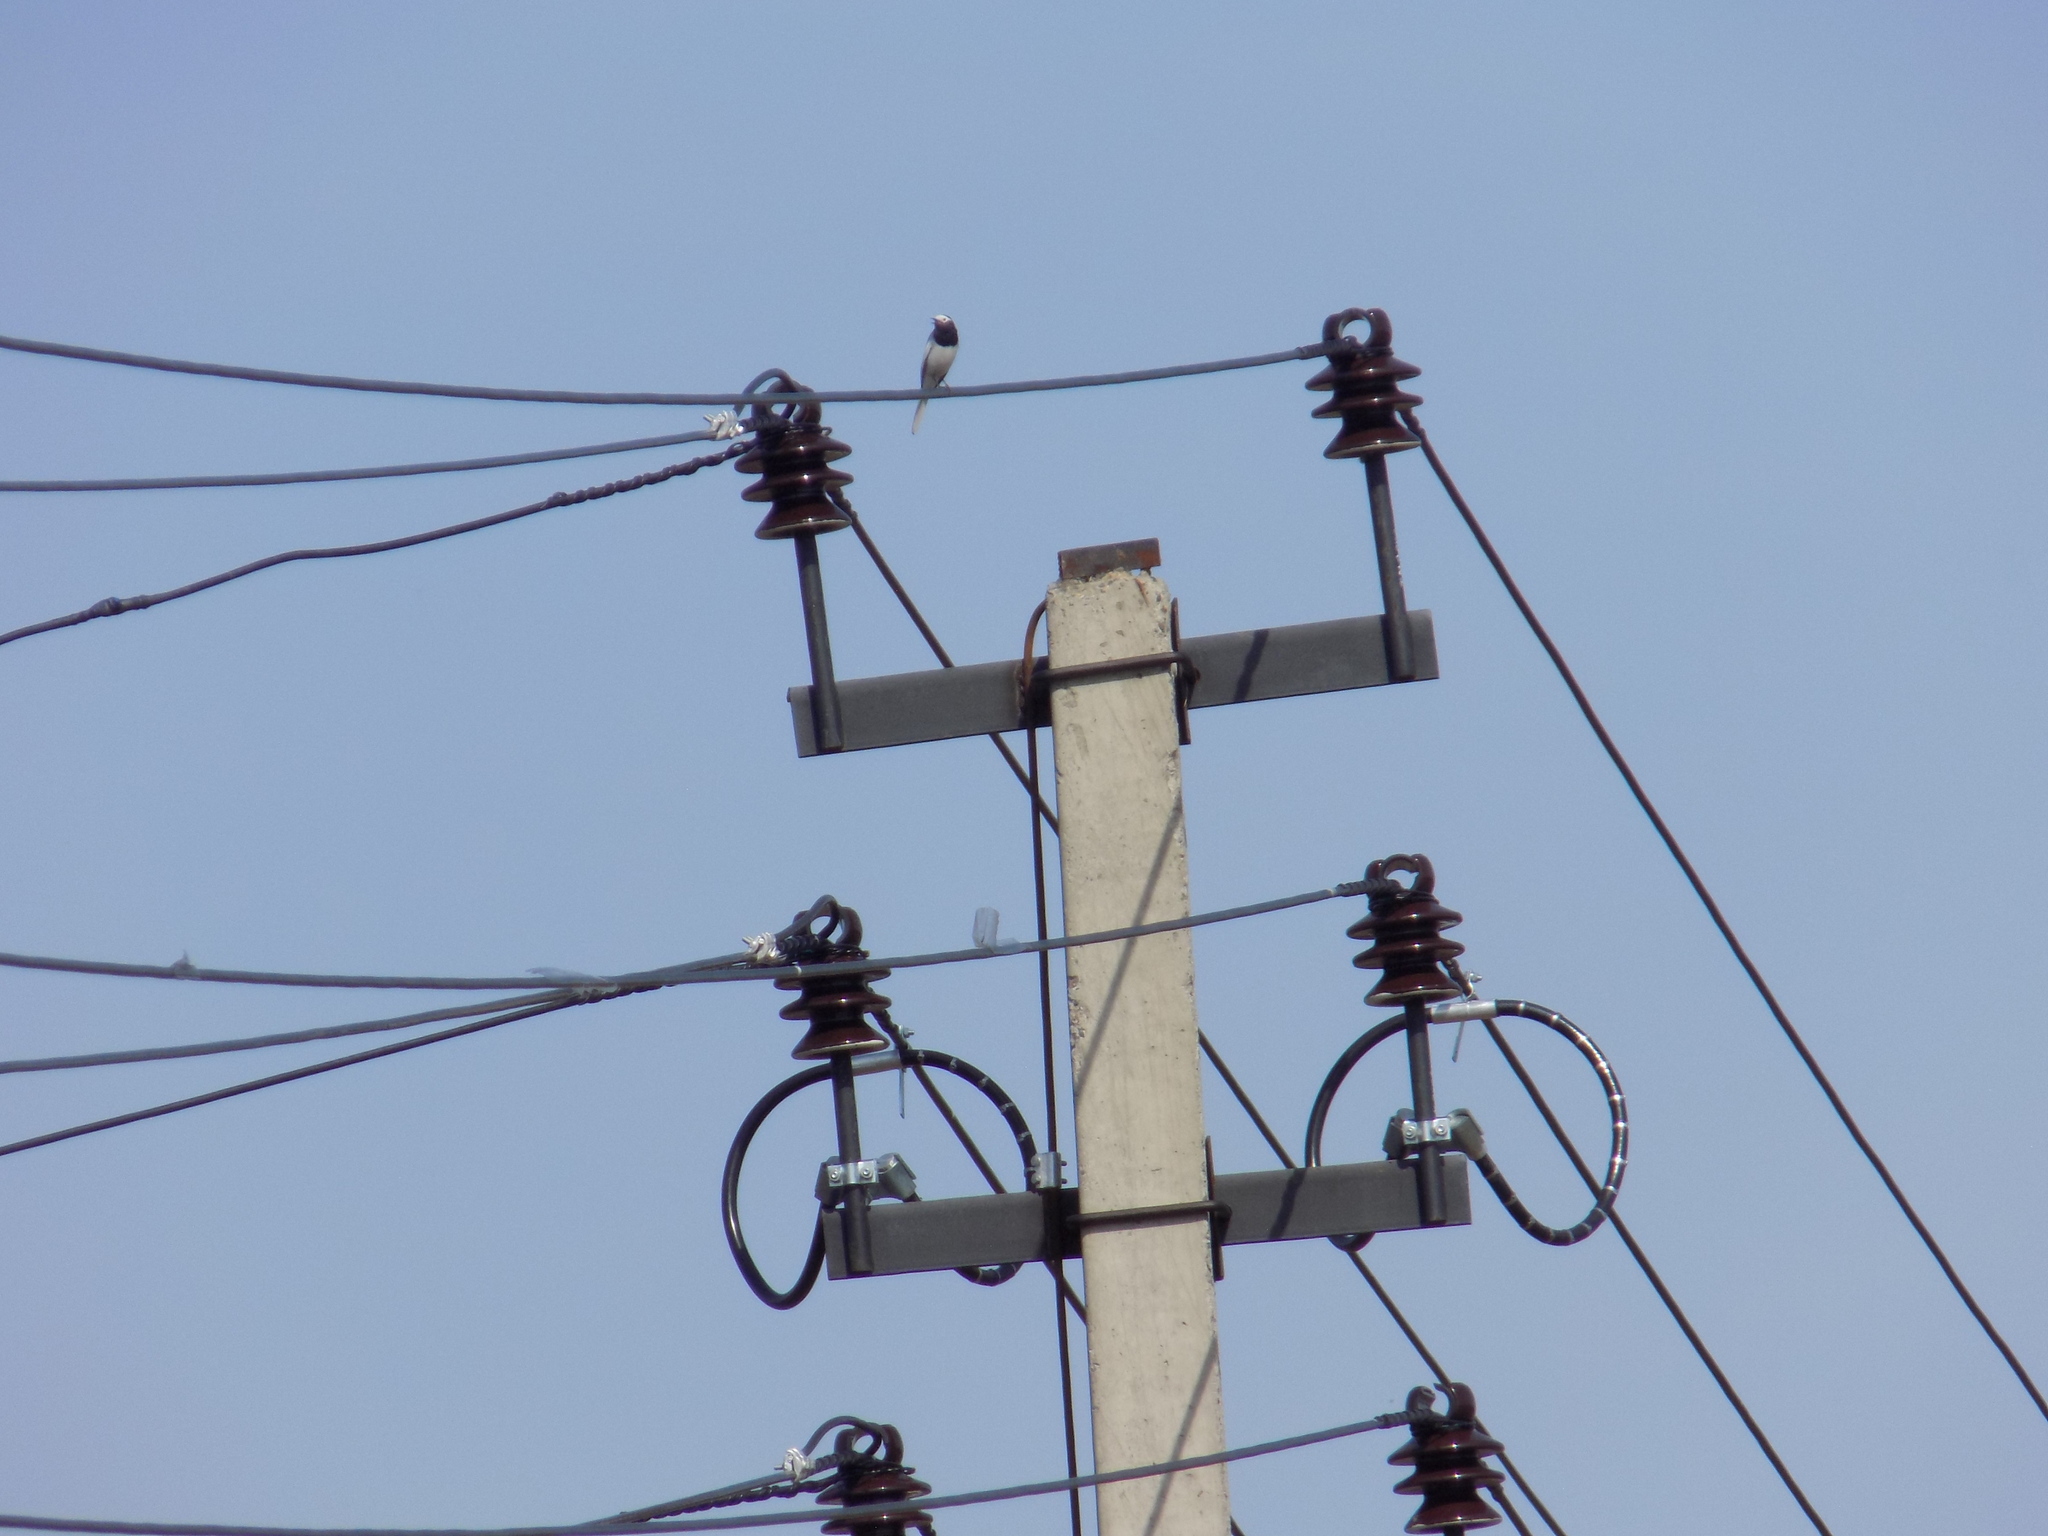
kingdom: Animalia
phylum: Chordata
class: Aves
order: Passeriformes
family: Motacillidae
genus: Motacilla
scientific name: Motacilla alba
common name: White wagtail
